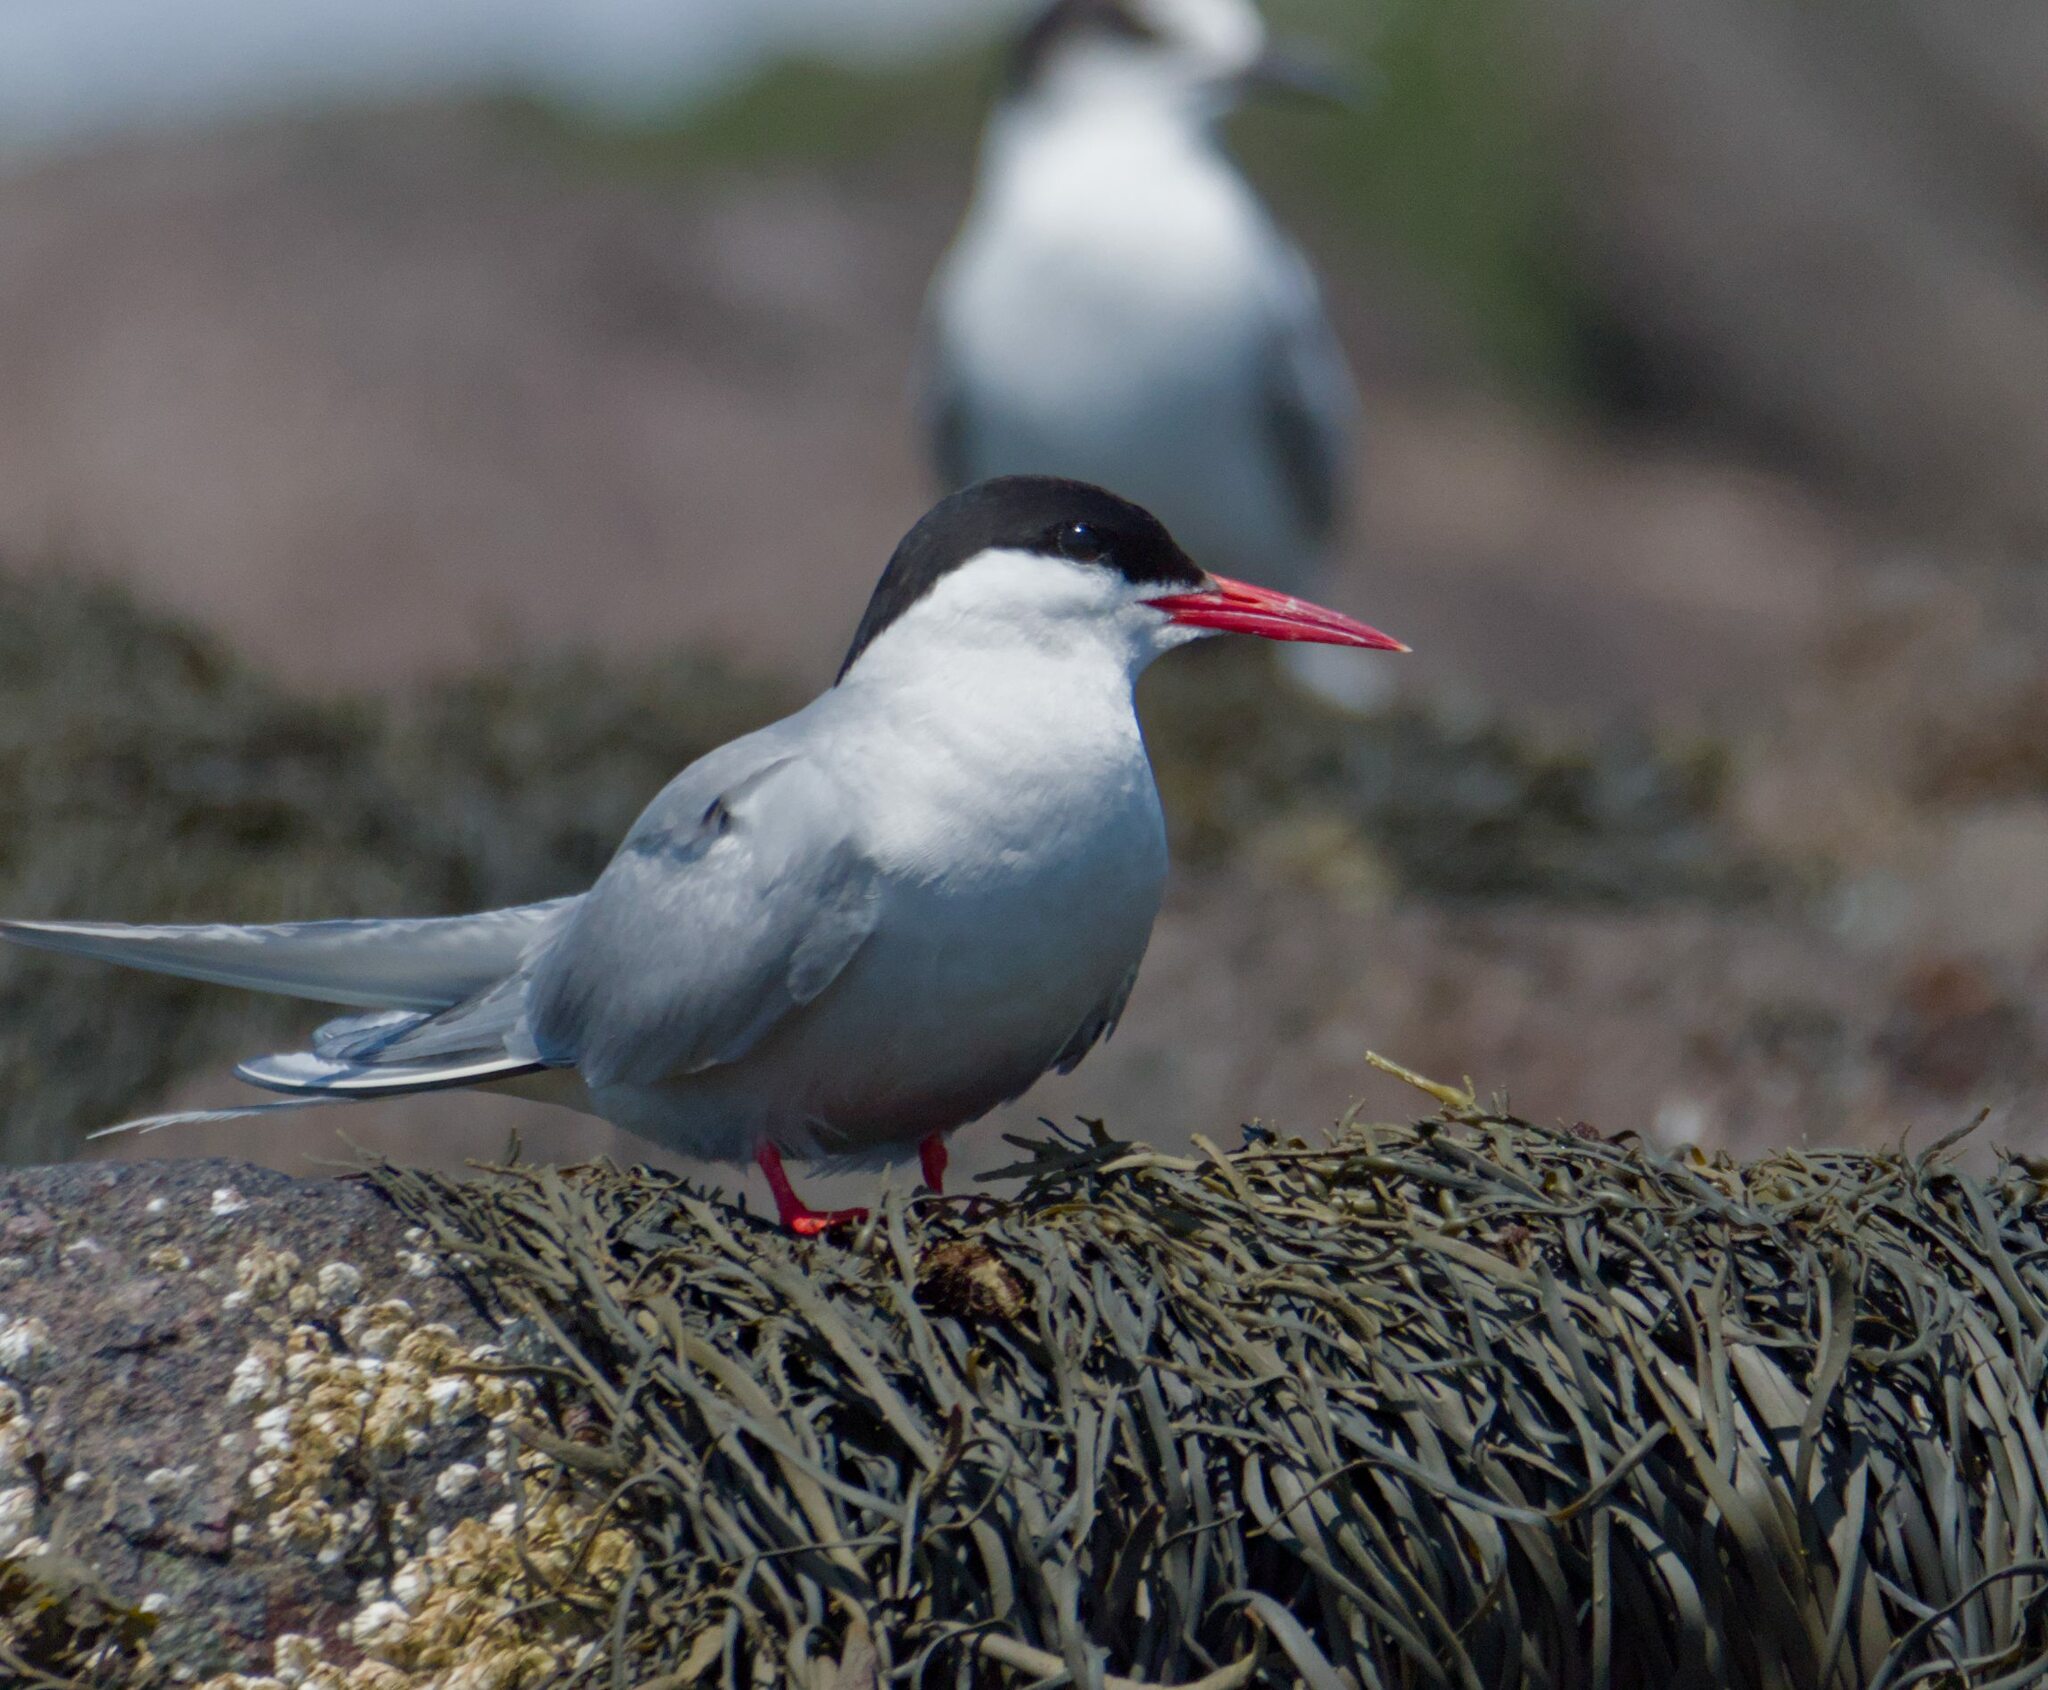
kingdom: Animalia
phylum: Chordata
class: Aves
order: Charadriiformes
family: Laridae
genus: Sterna
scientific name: Sterna paradisaea
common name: Arctic tern
